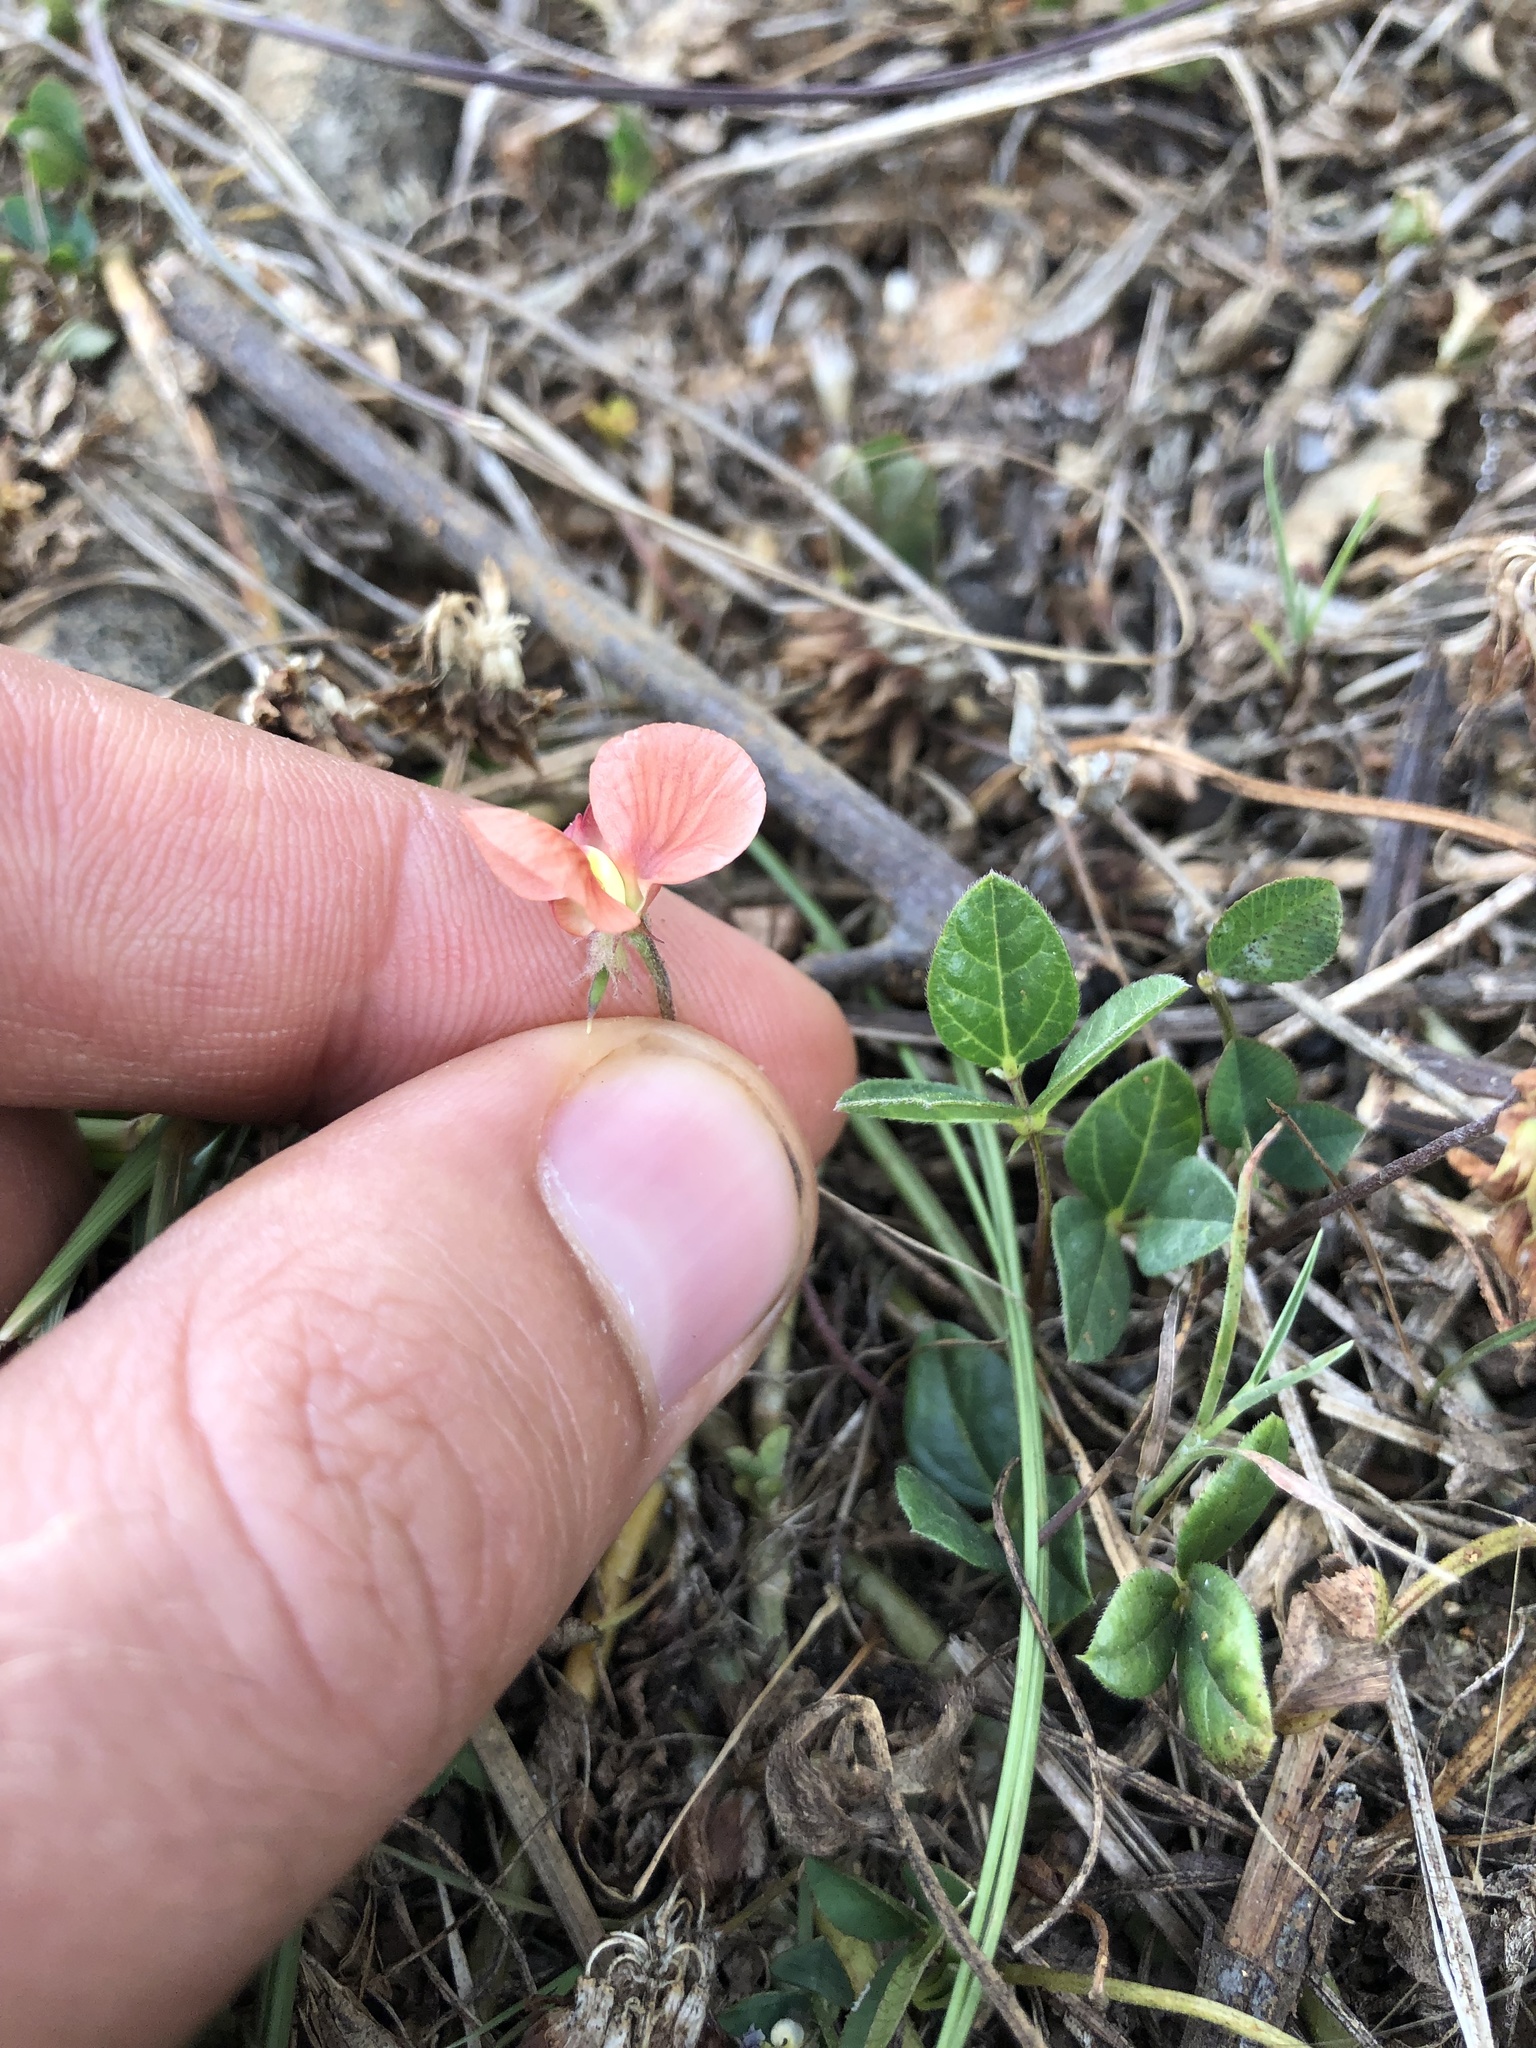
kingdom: Plantae
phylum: Tracheophyta
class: Magnoliopsida
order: Fabales
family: Fabaceae
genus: Macroptilium
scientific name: Macroptilium gibbosifolium
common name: Variableleaf bushbean
